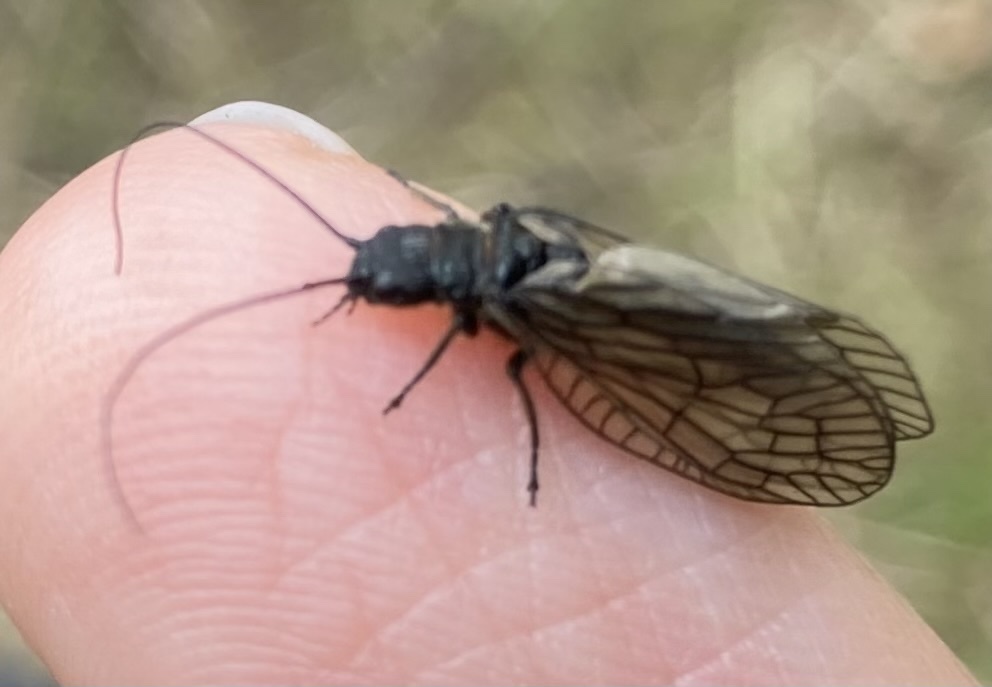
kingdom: Animalia
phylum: Arthropoda
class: Insecta
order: Megaloptera
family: Sialidae
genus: Sialis
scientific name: Sialis
